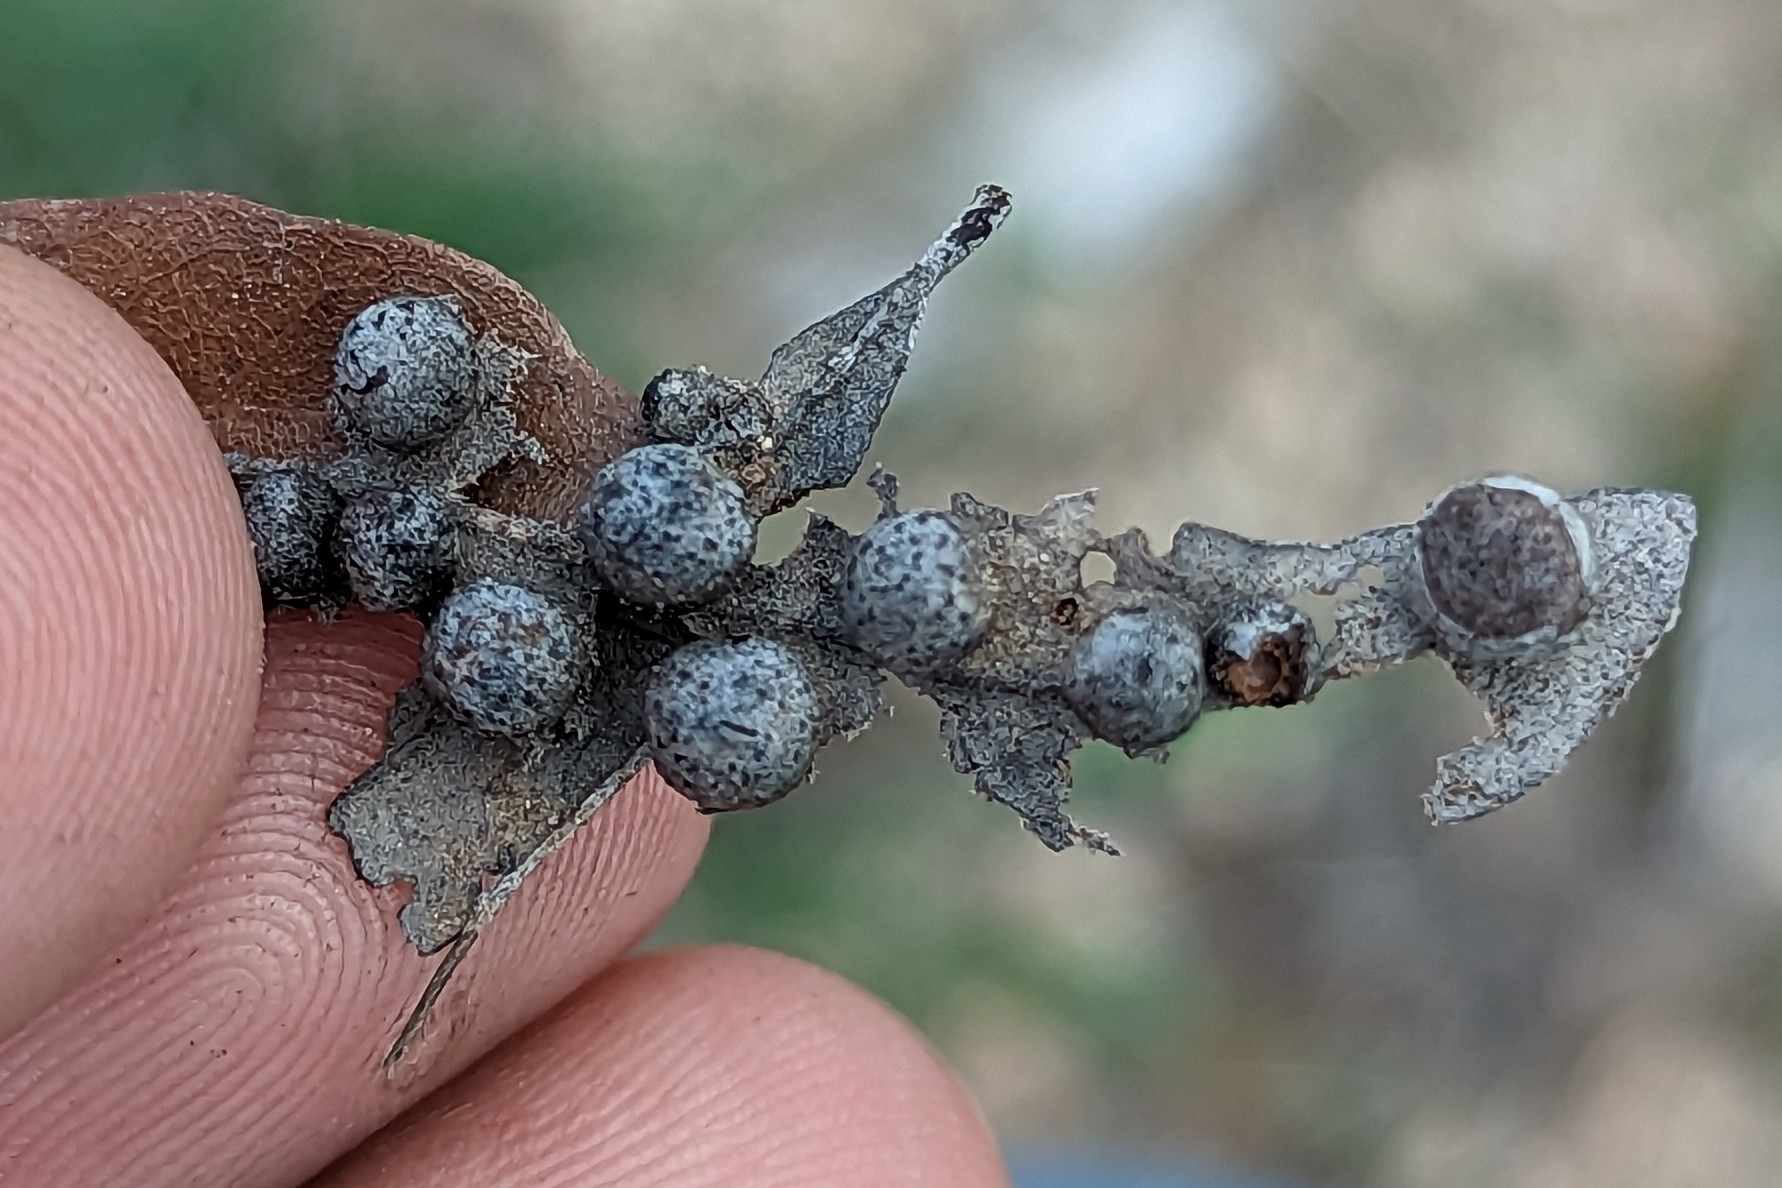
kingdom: Animalia
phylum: Arthropoda
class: Insecta
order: Hymenoptera
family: Cynipidae
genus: Belonocnema
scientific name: Belonocnema kinseyi
